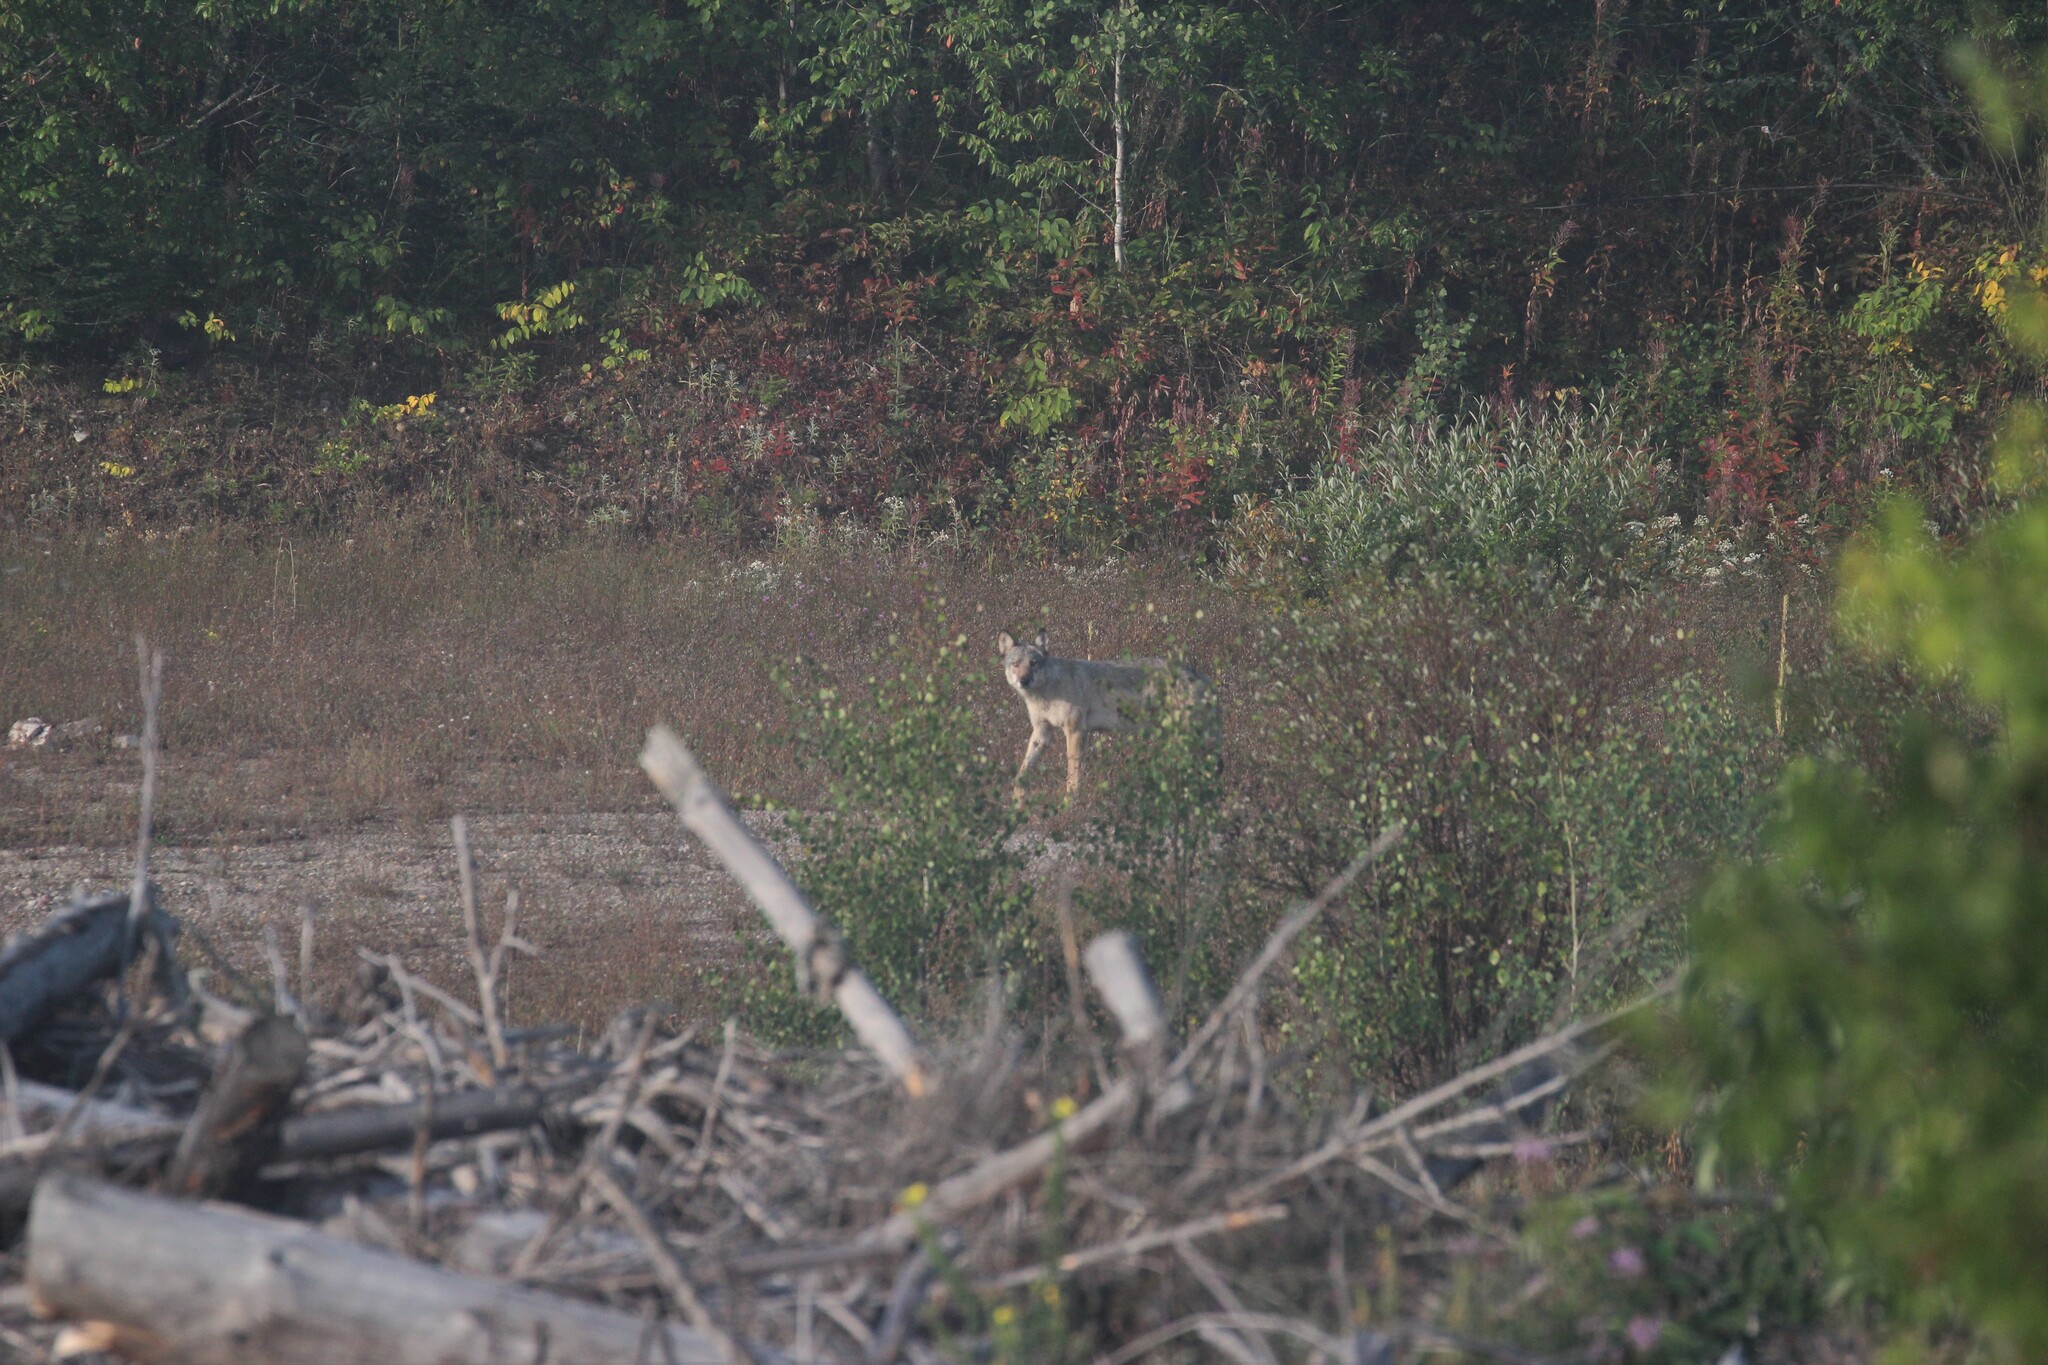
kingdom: Animalia
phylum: Chordata
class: Mammalia
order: Carnivora
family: Canidae
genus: Canis
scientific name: Canis lupus
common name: Gray wolf
